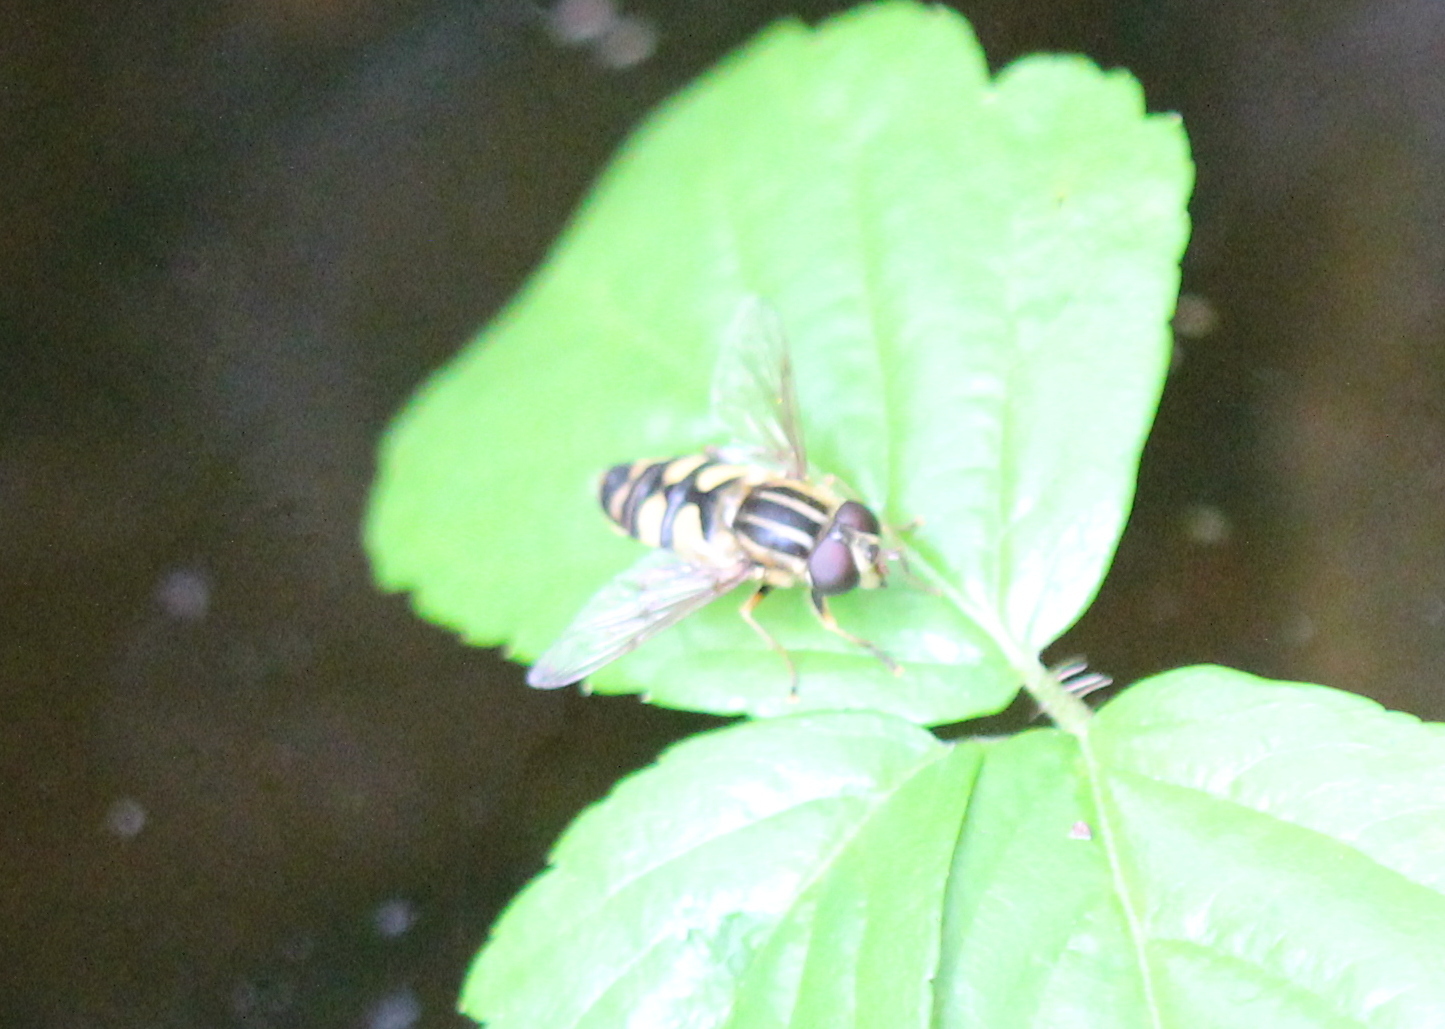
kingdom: Animalia
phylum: Arthropoda
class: Insecta
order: Diptera
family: Syrphidae
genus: Helophilus
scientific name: Helophilus fasciatus
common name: Narrow-headed marsh fly
